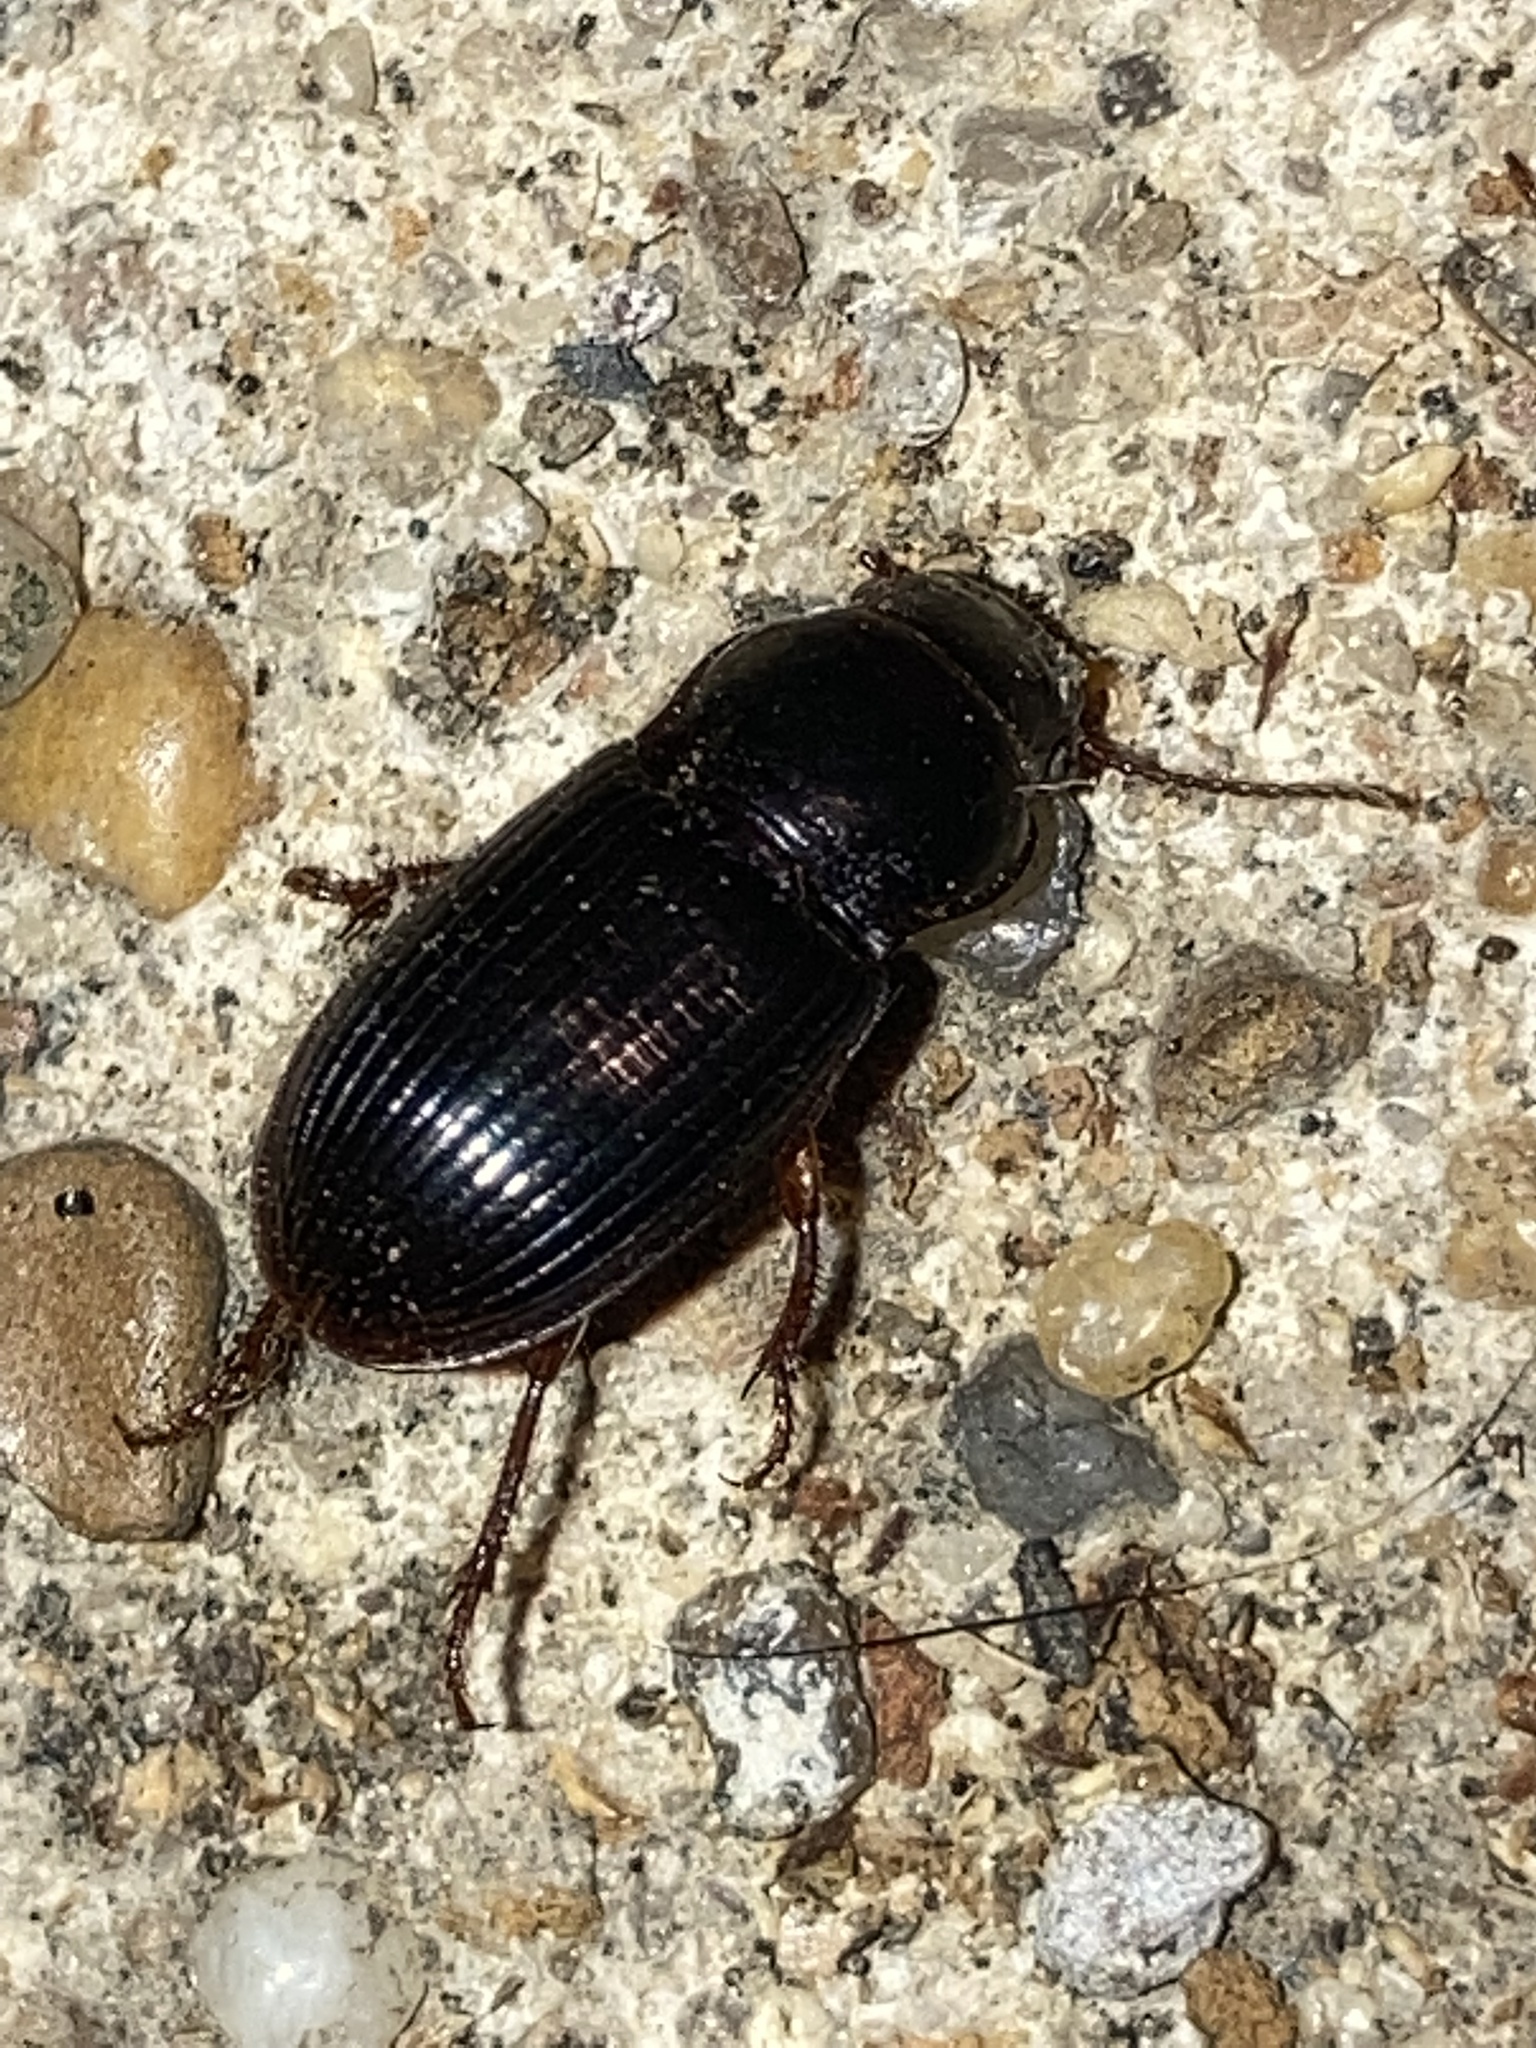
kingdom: Animalia
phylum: Arthropoda
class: Insecta
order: Coleoptera
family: Carabidae
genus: Cratacanthus
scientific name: Cratacanthus dubius
